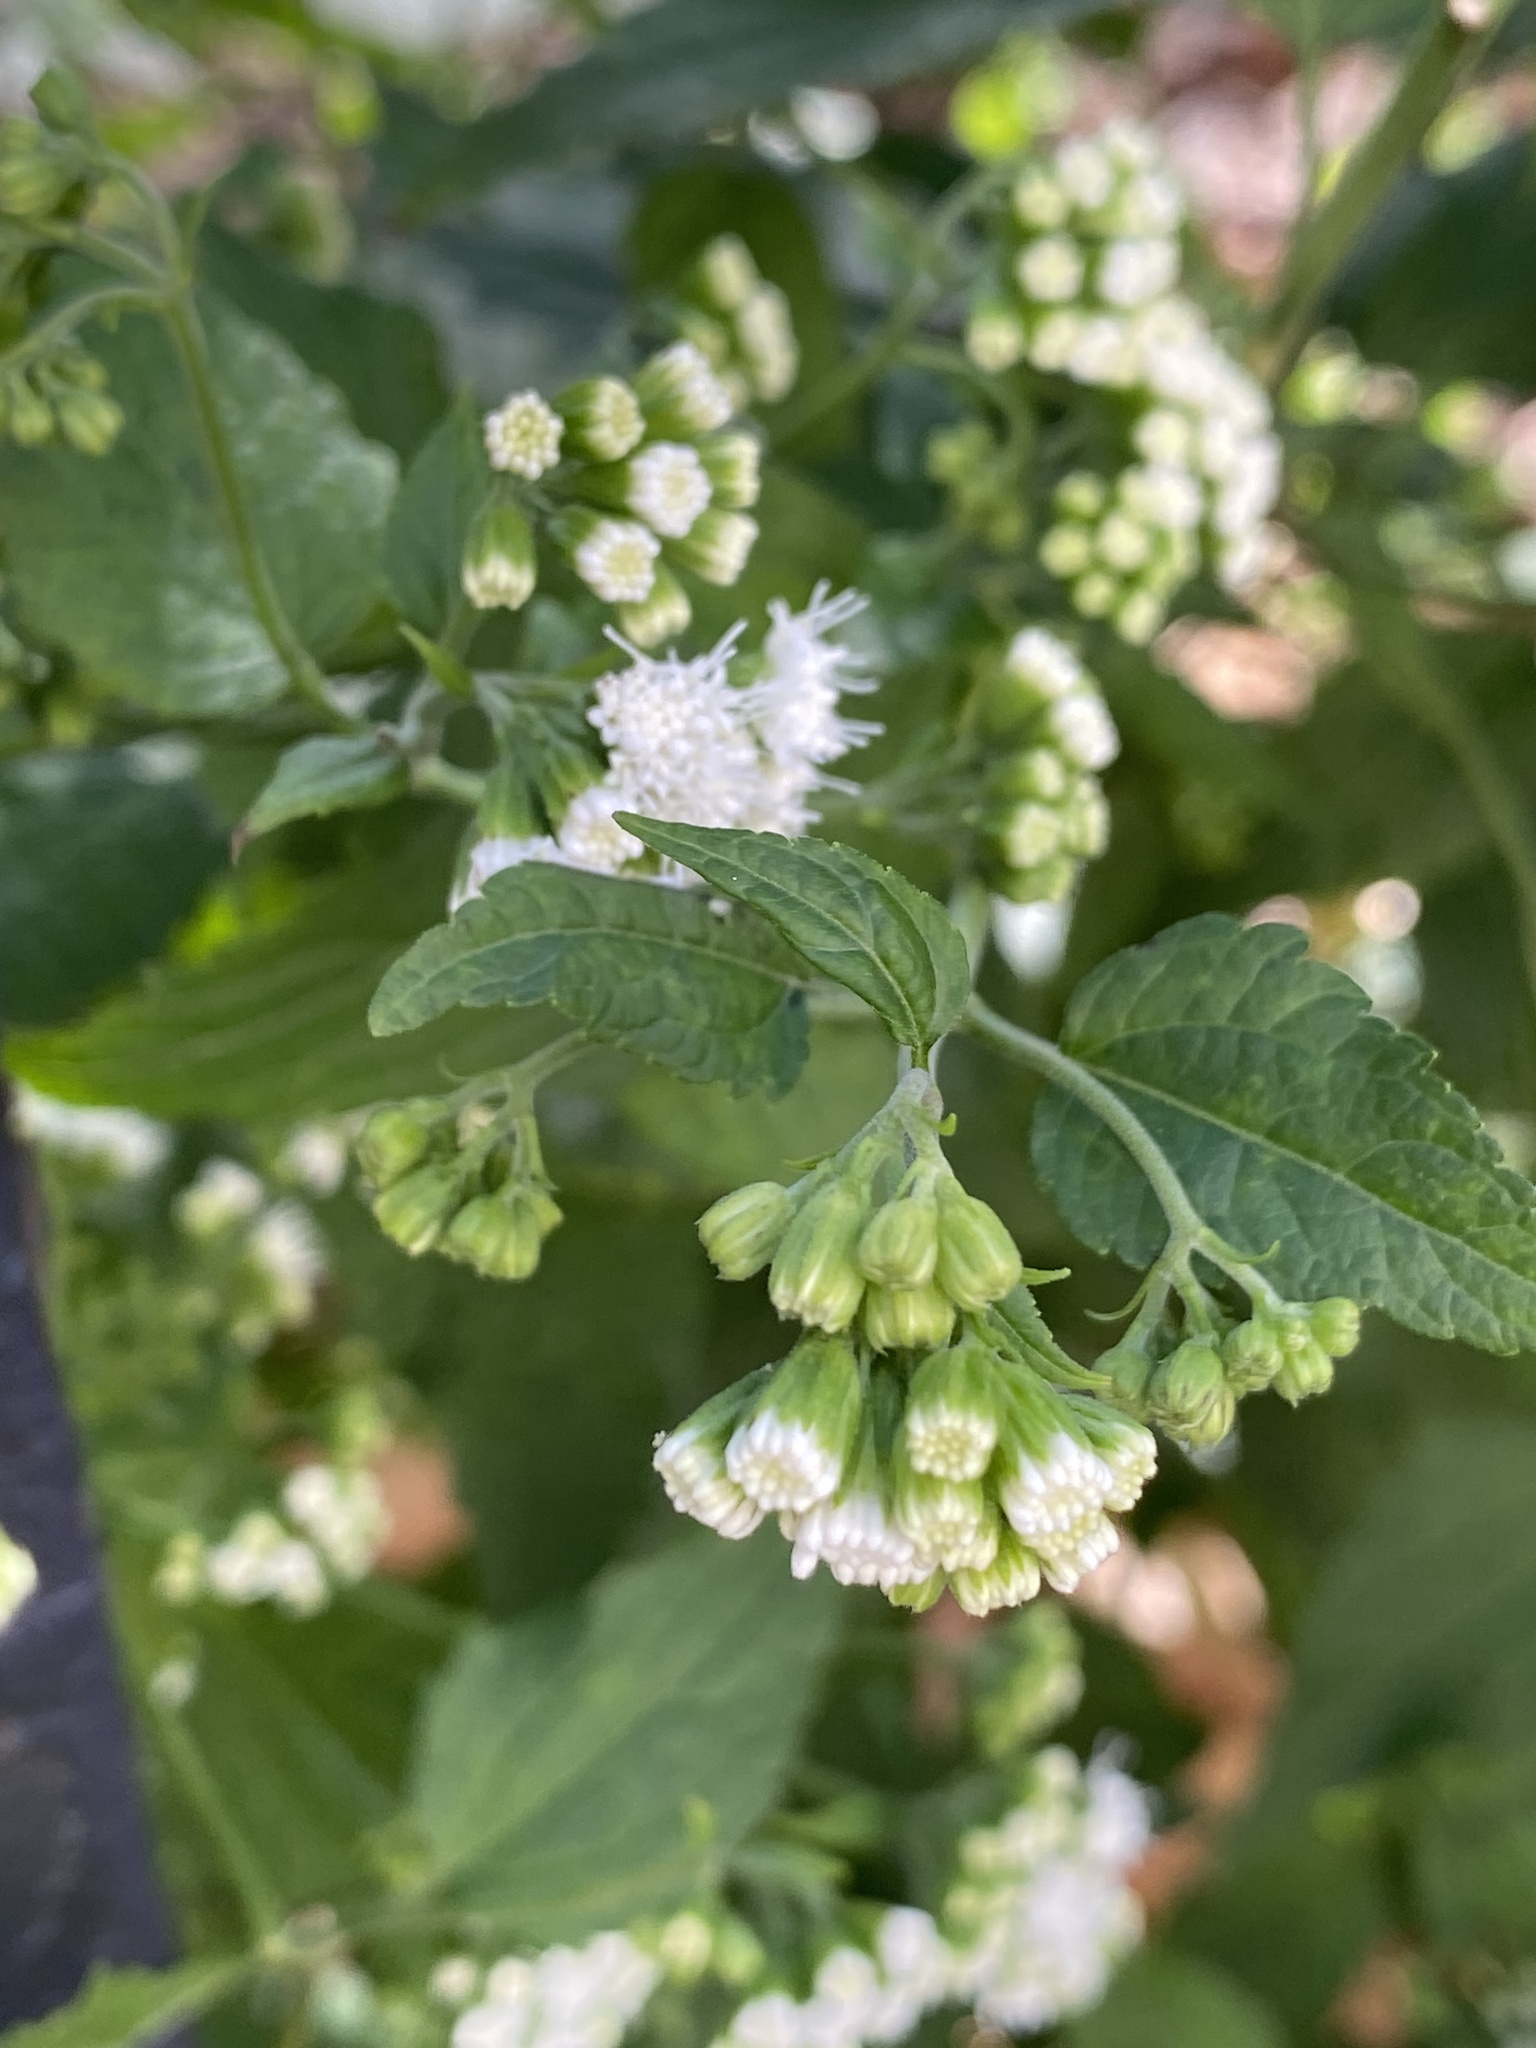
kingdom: Plantae
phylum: Tracheophyta
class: Magnoliopsida
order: Asterales
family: Asteraceae
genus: Ageratina
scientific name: Ageratina altissima
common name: White snakeroot
